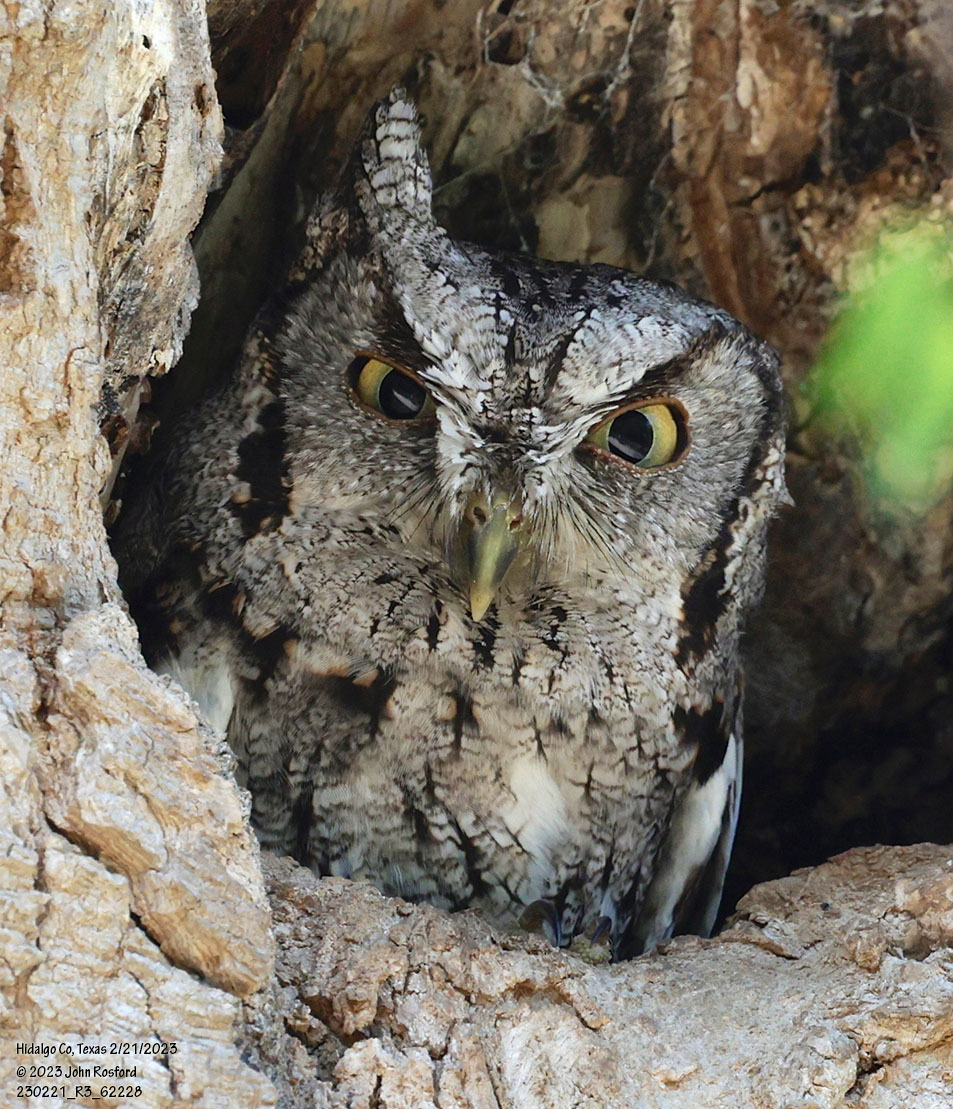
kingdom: Animalia
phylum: Chordata
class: Aves
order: Strigiformes
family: Strigidae
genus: Megascops
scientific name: Megascops asio
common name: Eastern screech-owl
